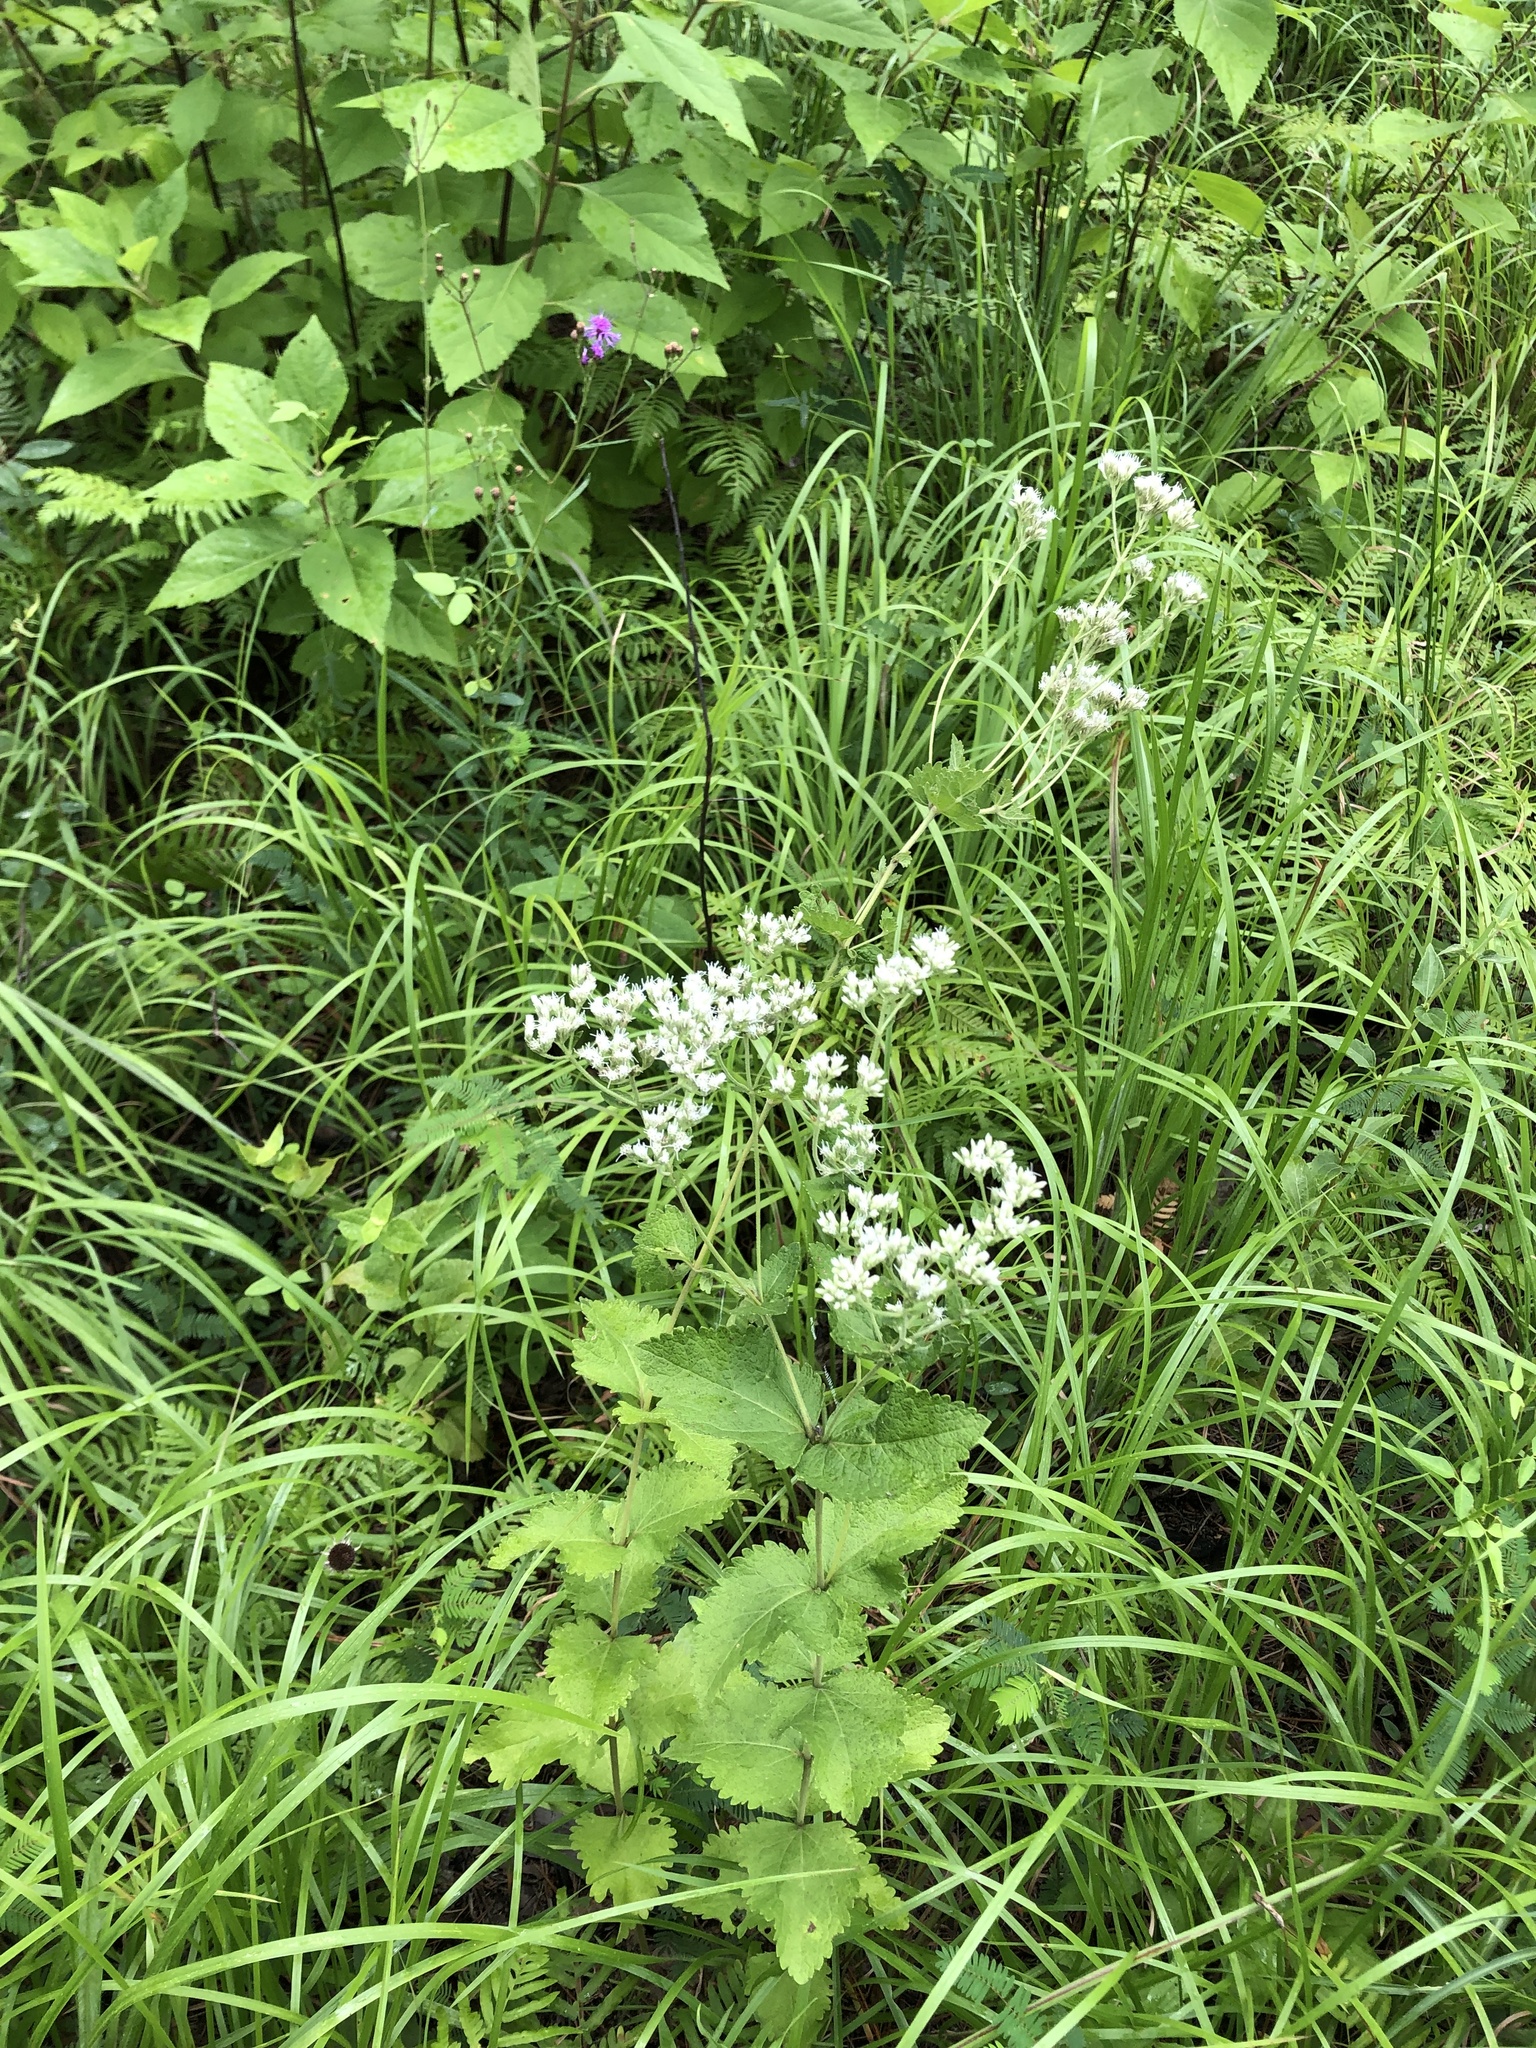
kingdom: Plantae
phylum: Tracheophyta
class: Magnoliopsida
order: Asterales
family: Asteraceae
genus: Eupatorium
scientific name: Eupatorium rotundifolium
